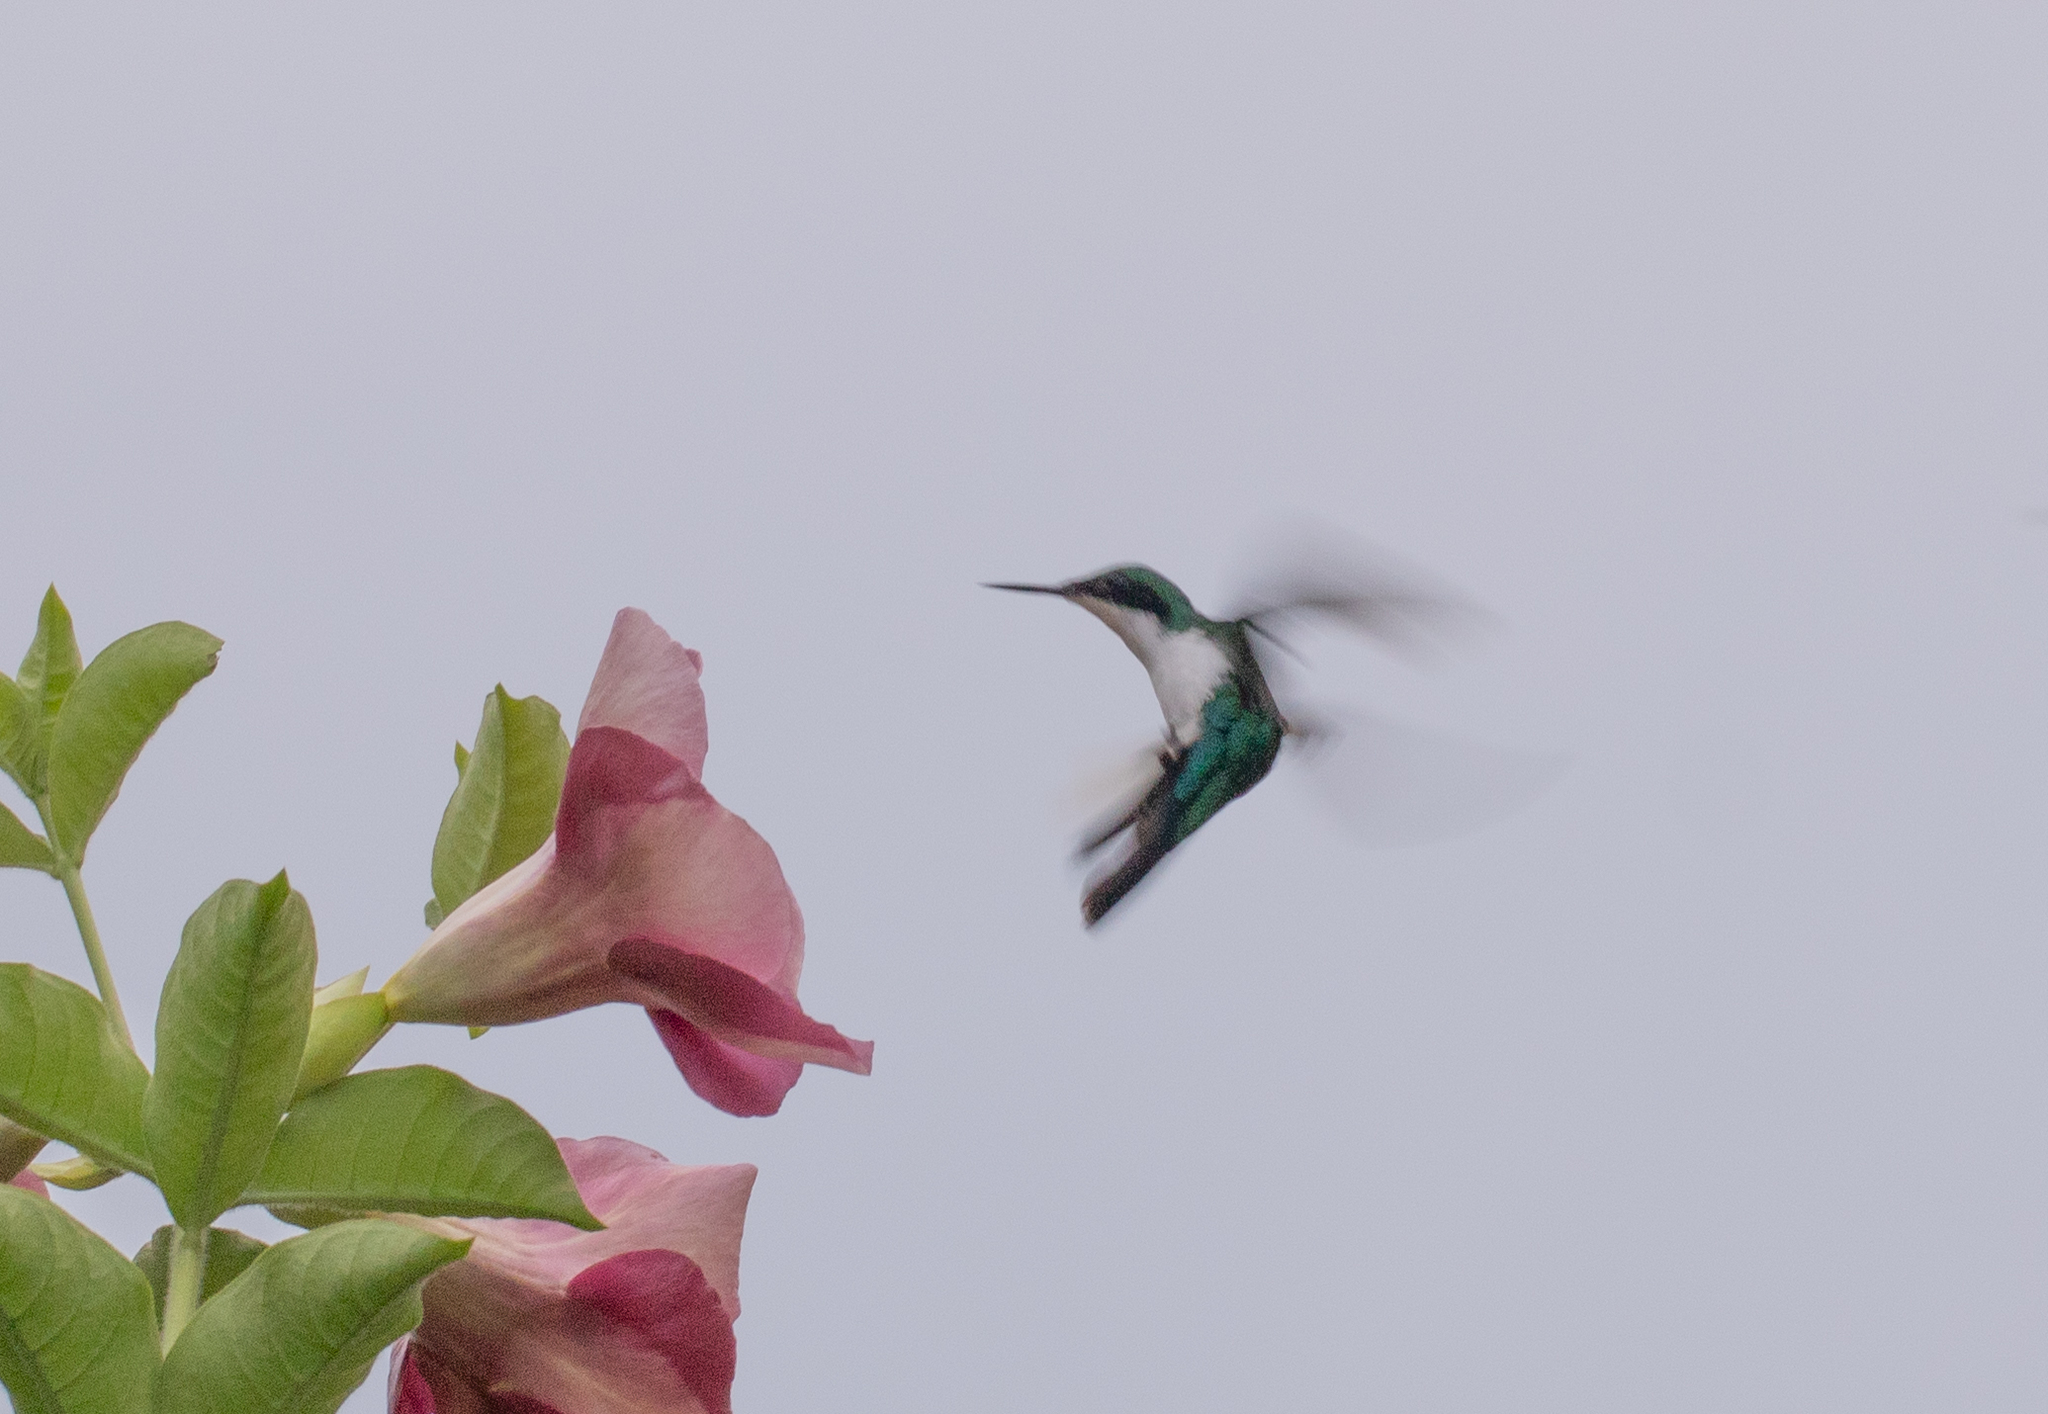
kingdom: Animalia
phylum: Chordata
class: Aves
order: Apodiformes
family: Trochilidae
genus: Heliothryx
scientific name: Heliothryx barroti
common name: Purple-crowned fairy
